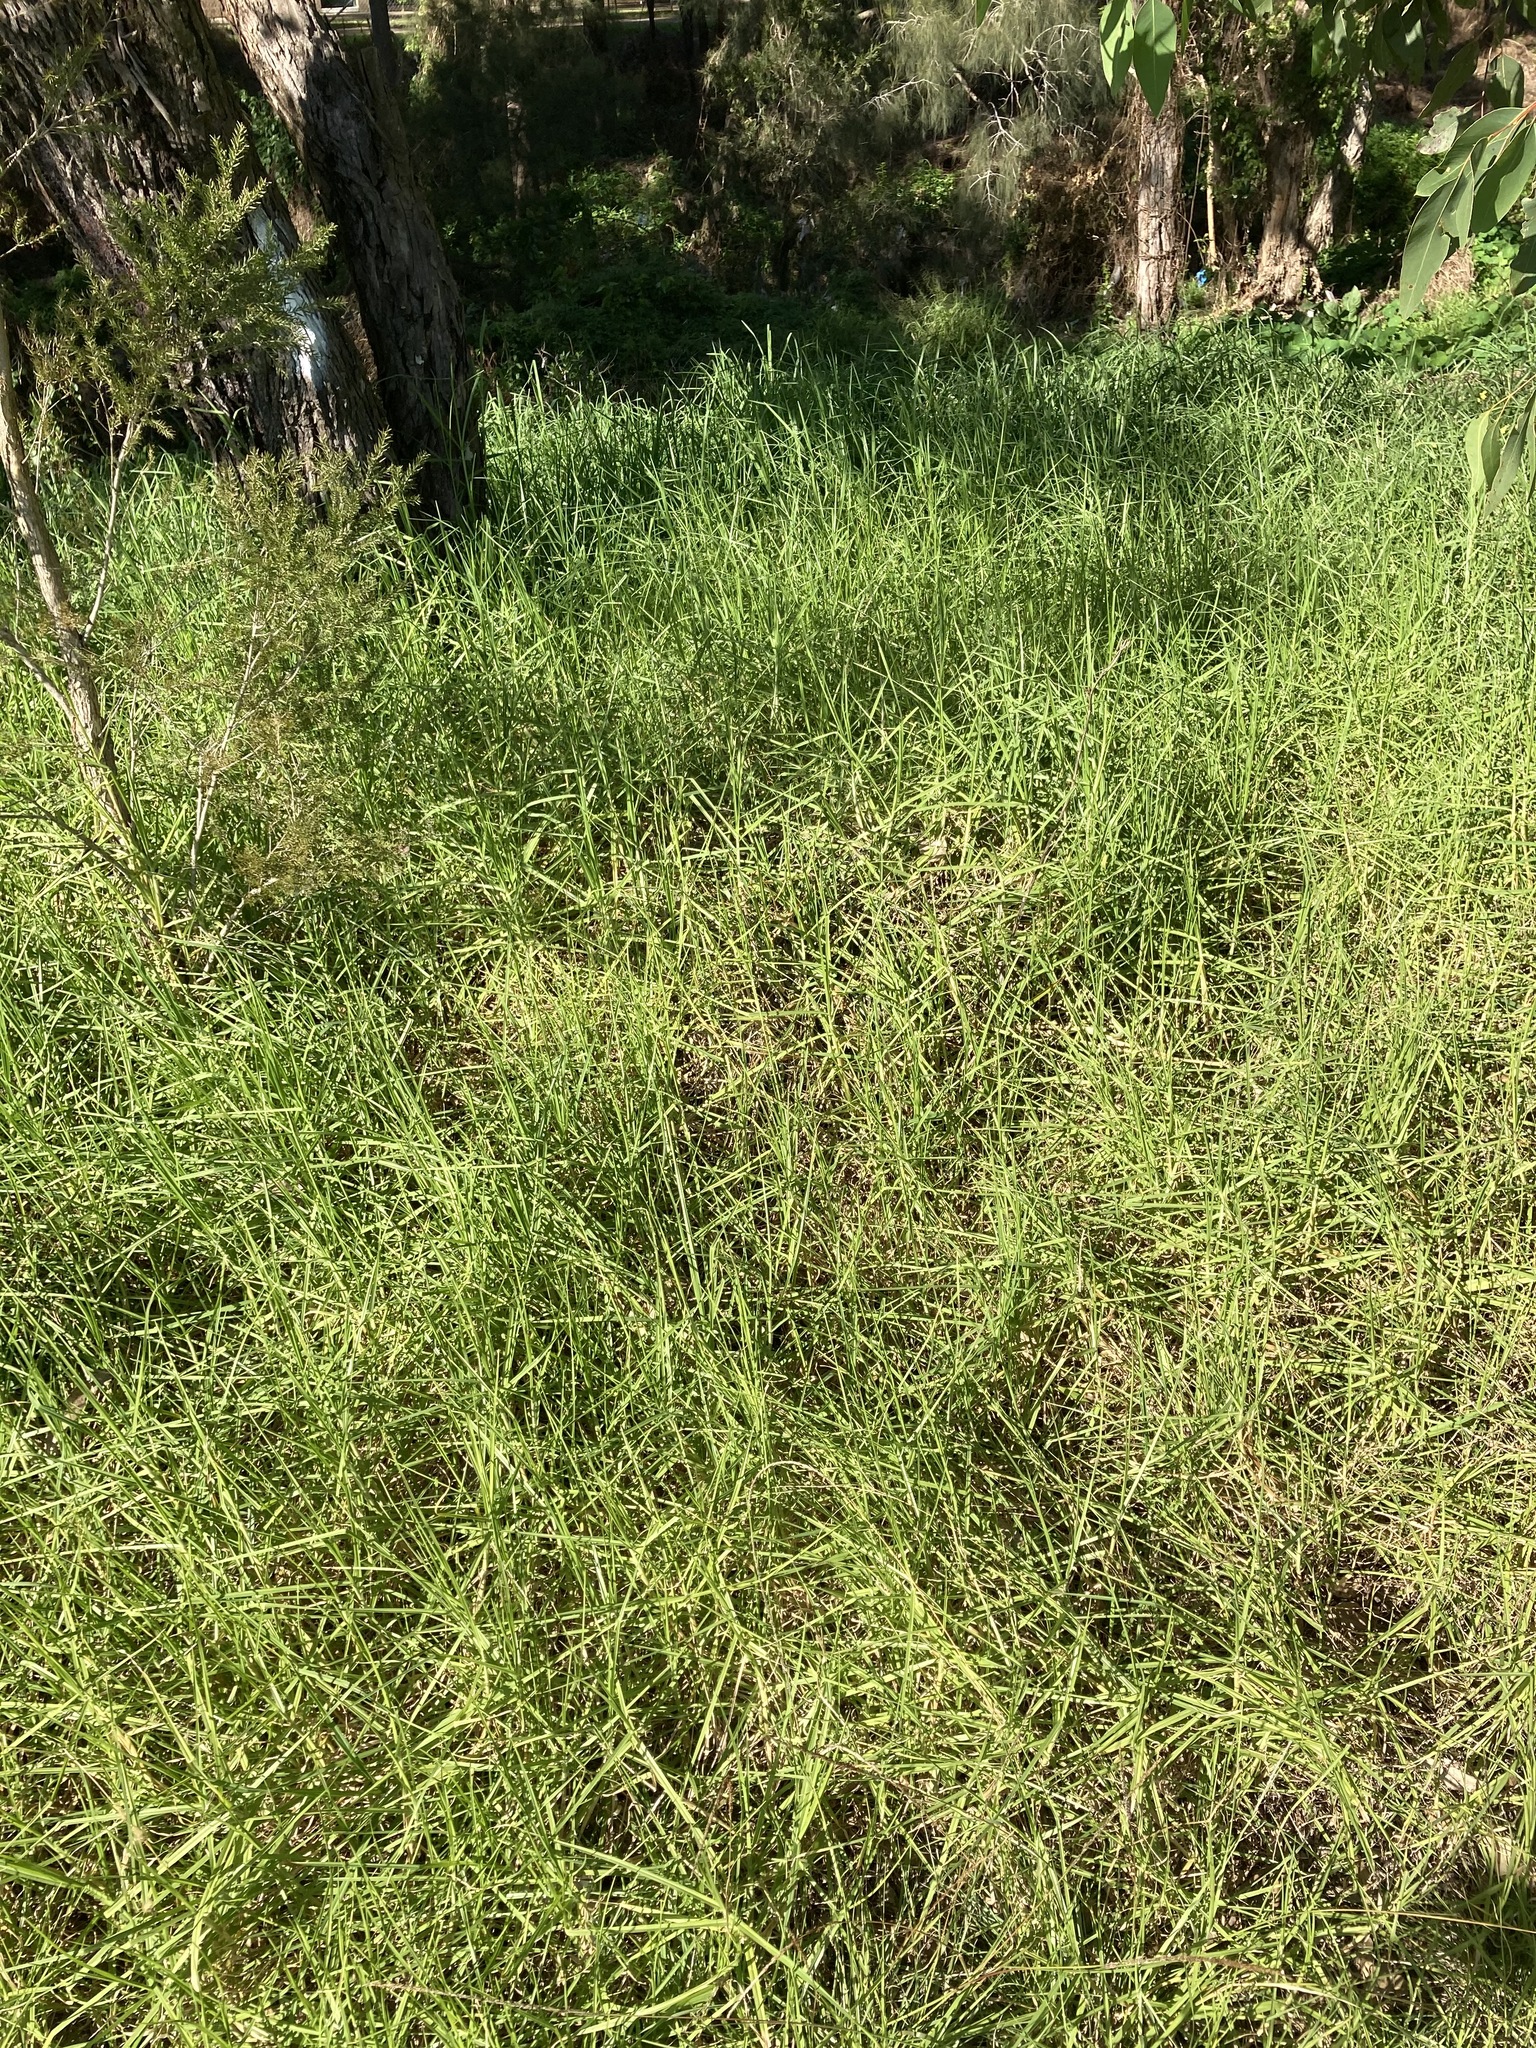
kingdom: Plantae
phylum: Tracheophyta
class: Liliopsida
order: Poales
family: Poaceae
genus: Cenchrus
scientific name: Cenchrus clandestinus
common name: Kikuyugrass
